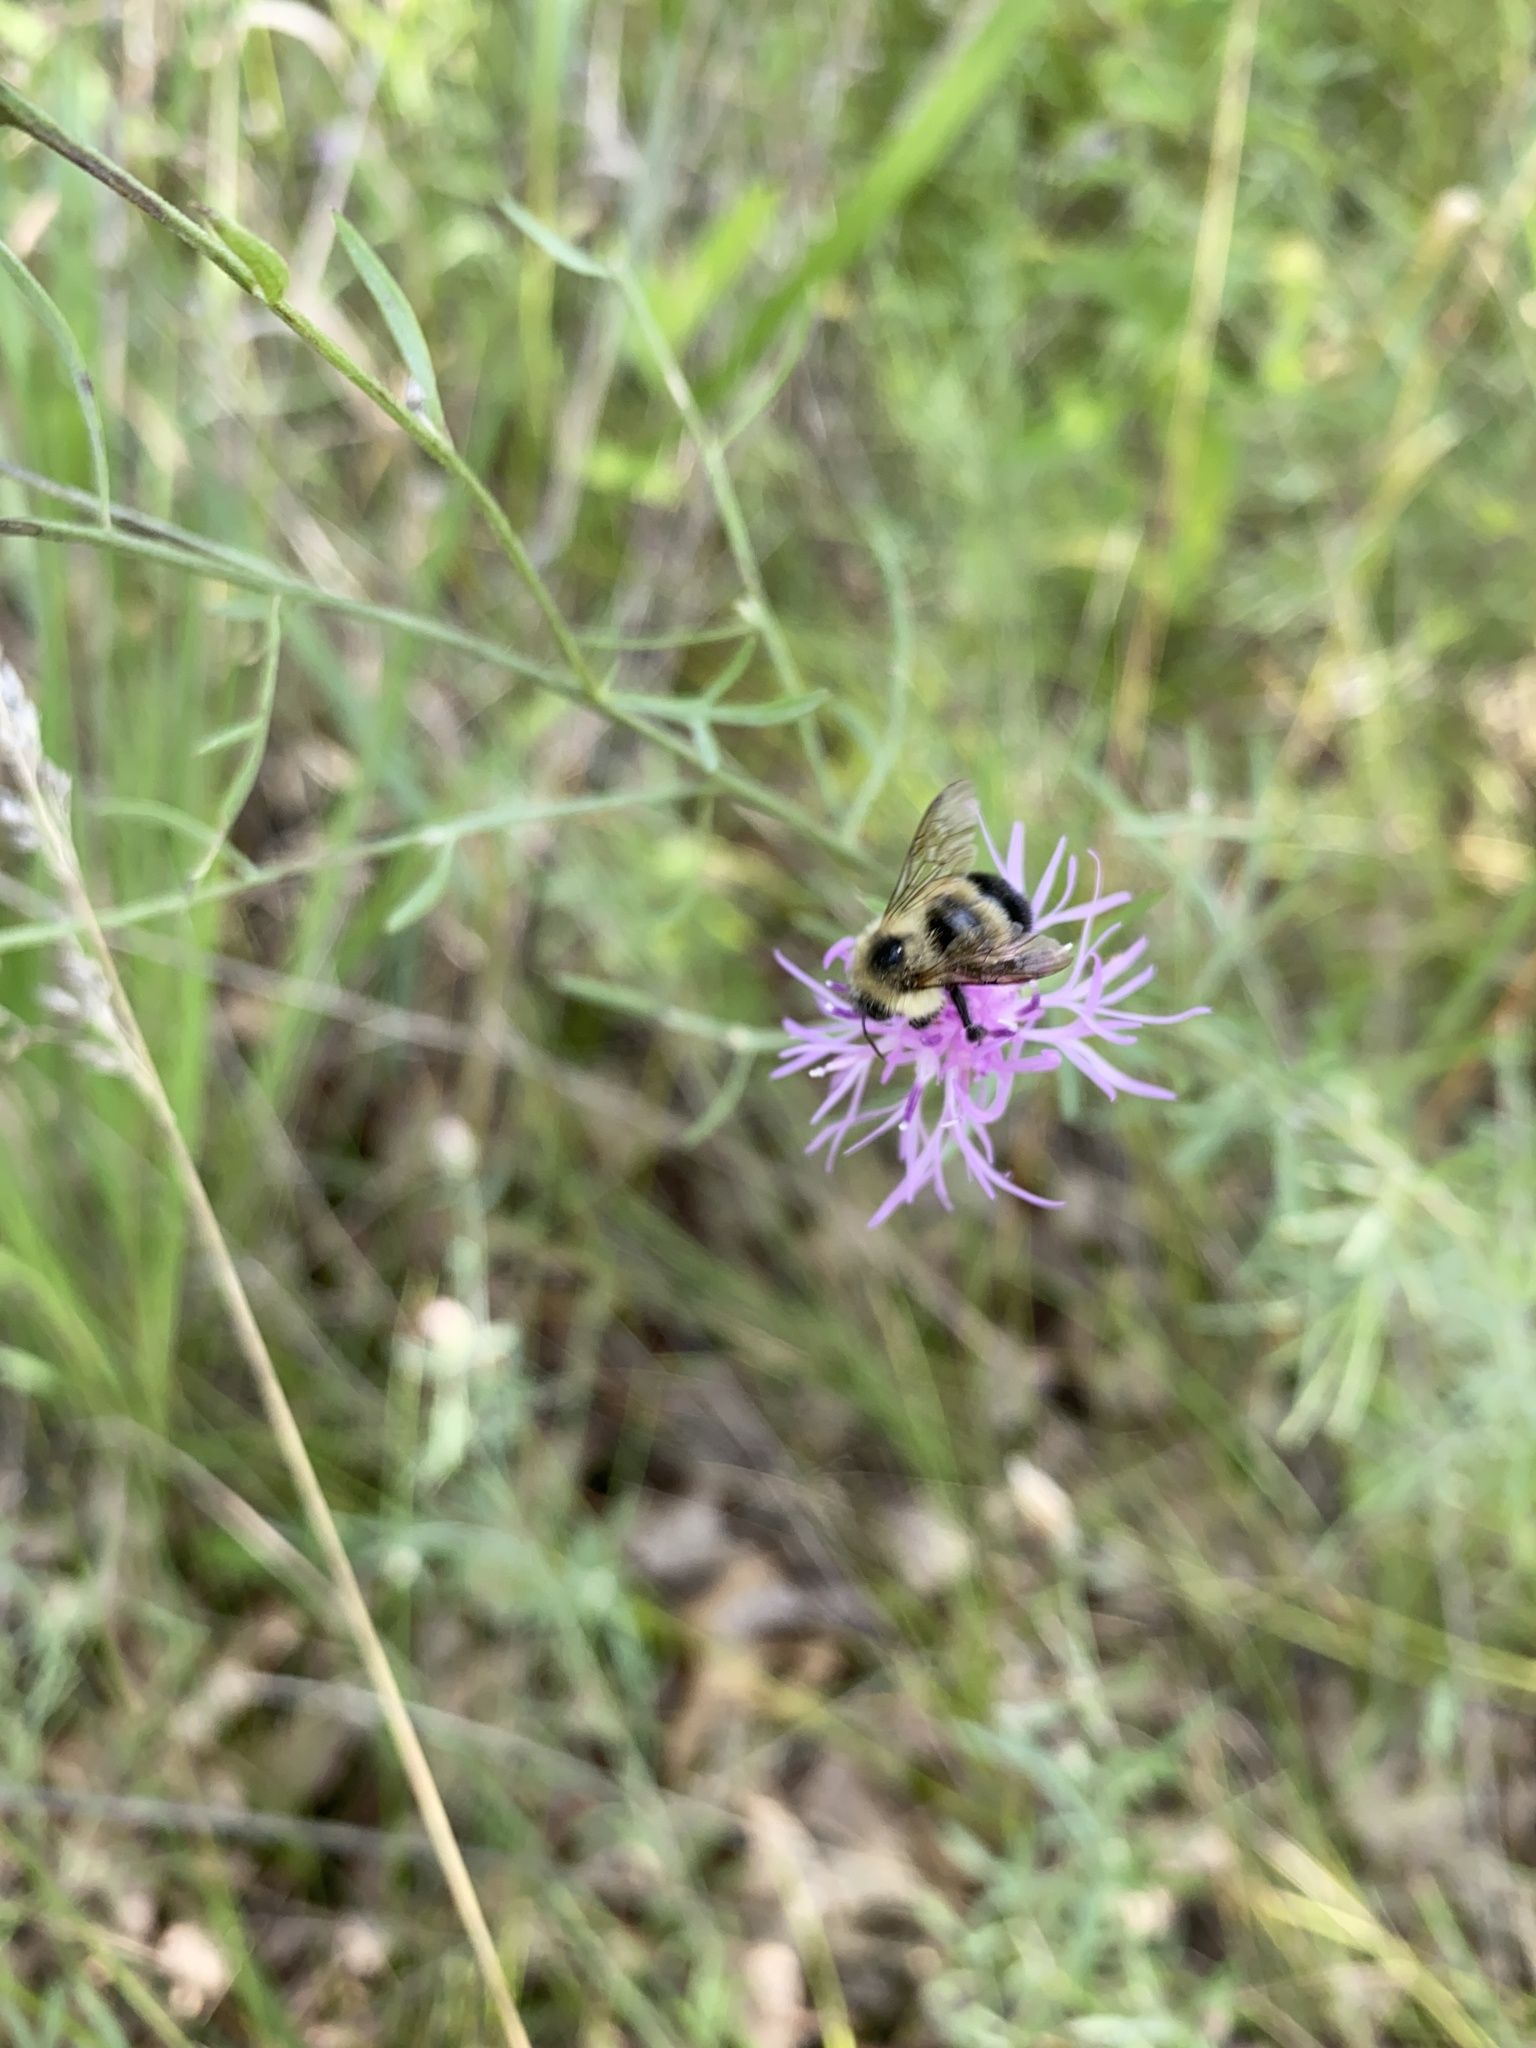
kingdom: Animalia
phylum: Arthropoda
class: Insecta
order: Hymenoptera
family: Apidae
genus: Pyrobombus
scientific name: Pyrobombus
